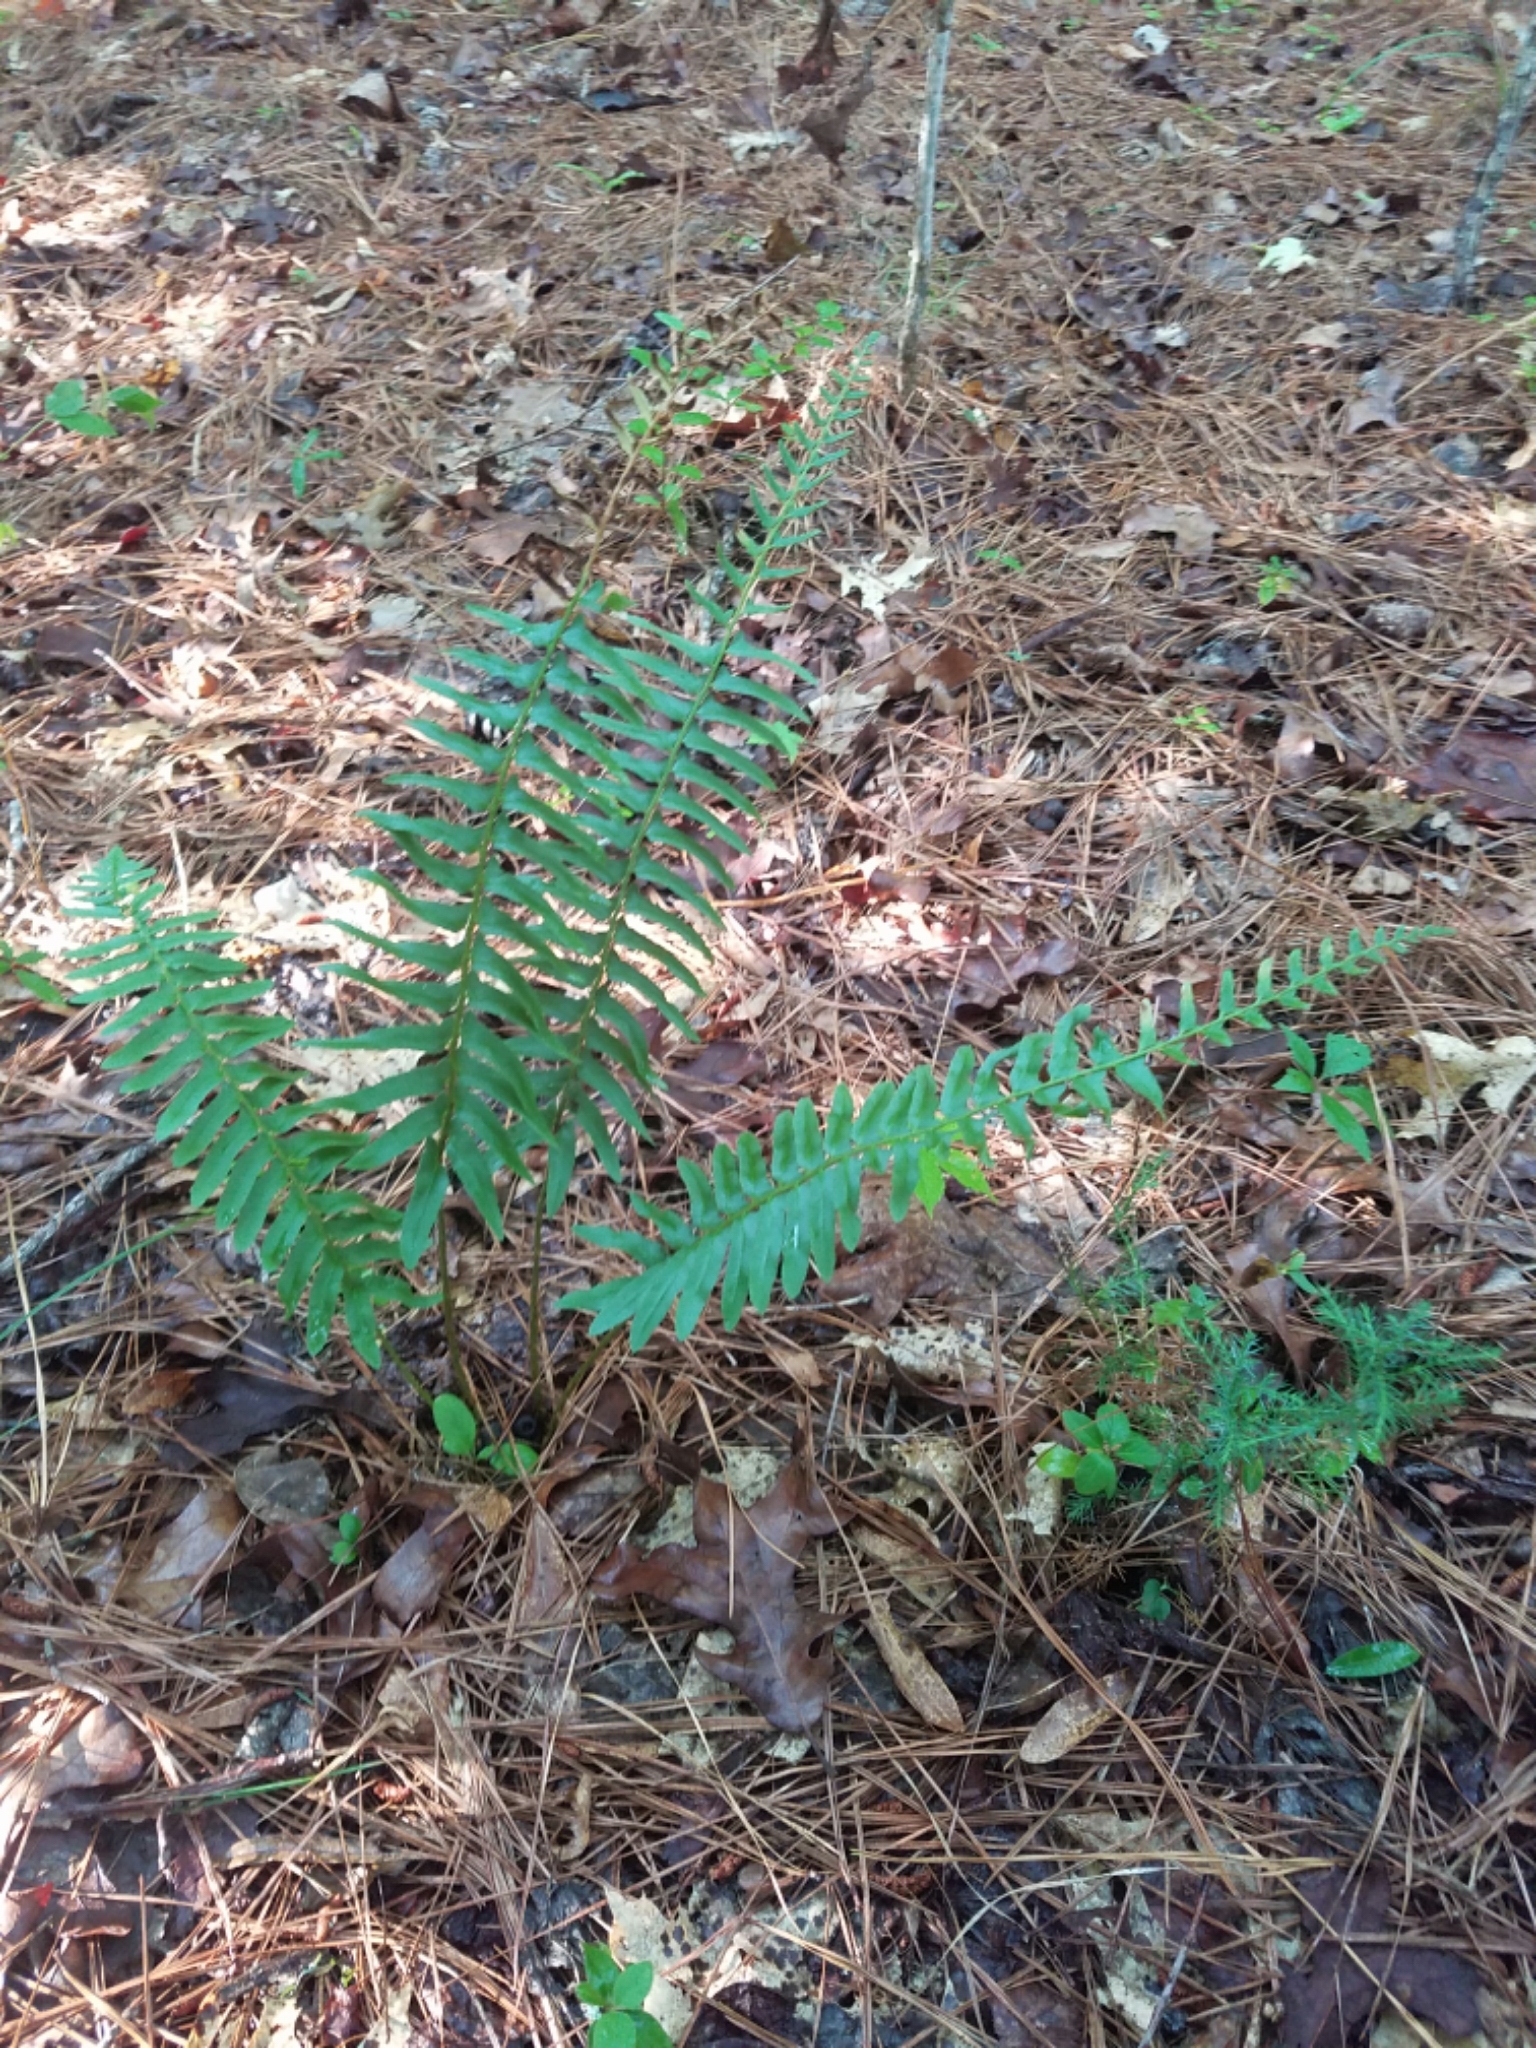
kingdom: Plantae
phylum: Tracheophyta
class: Polypodiopsida
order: Polypodiales
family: Dryopteridaceae
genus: Polystichum
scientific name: Polystichum acrostichoides
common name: Christmas fern
